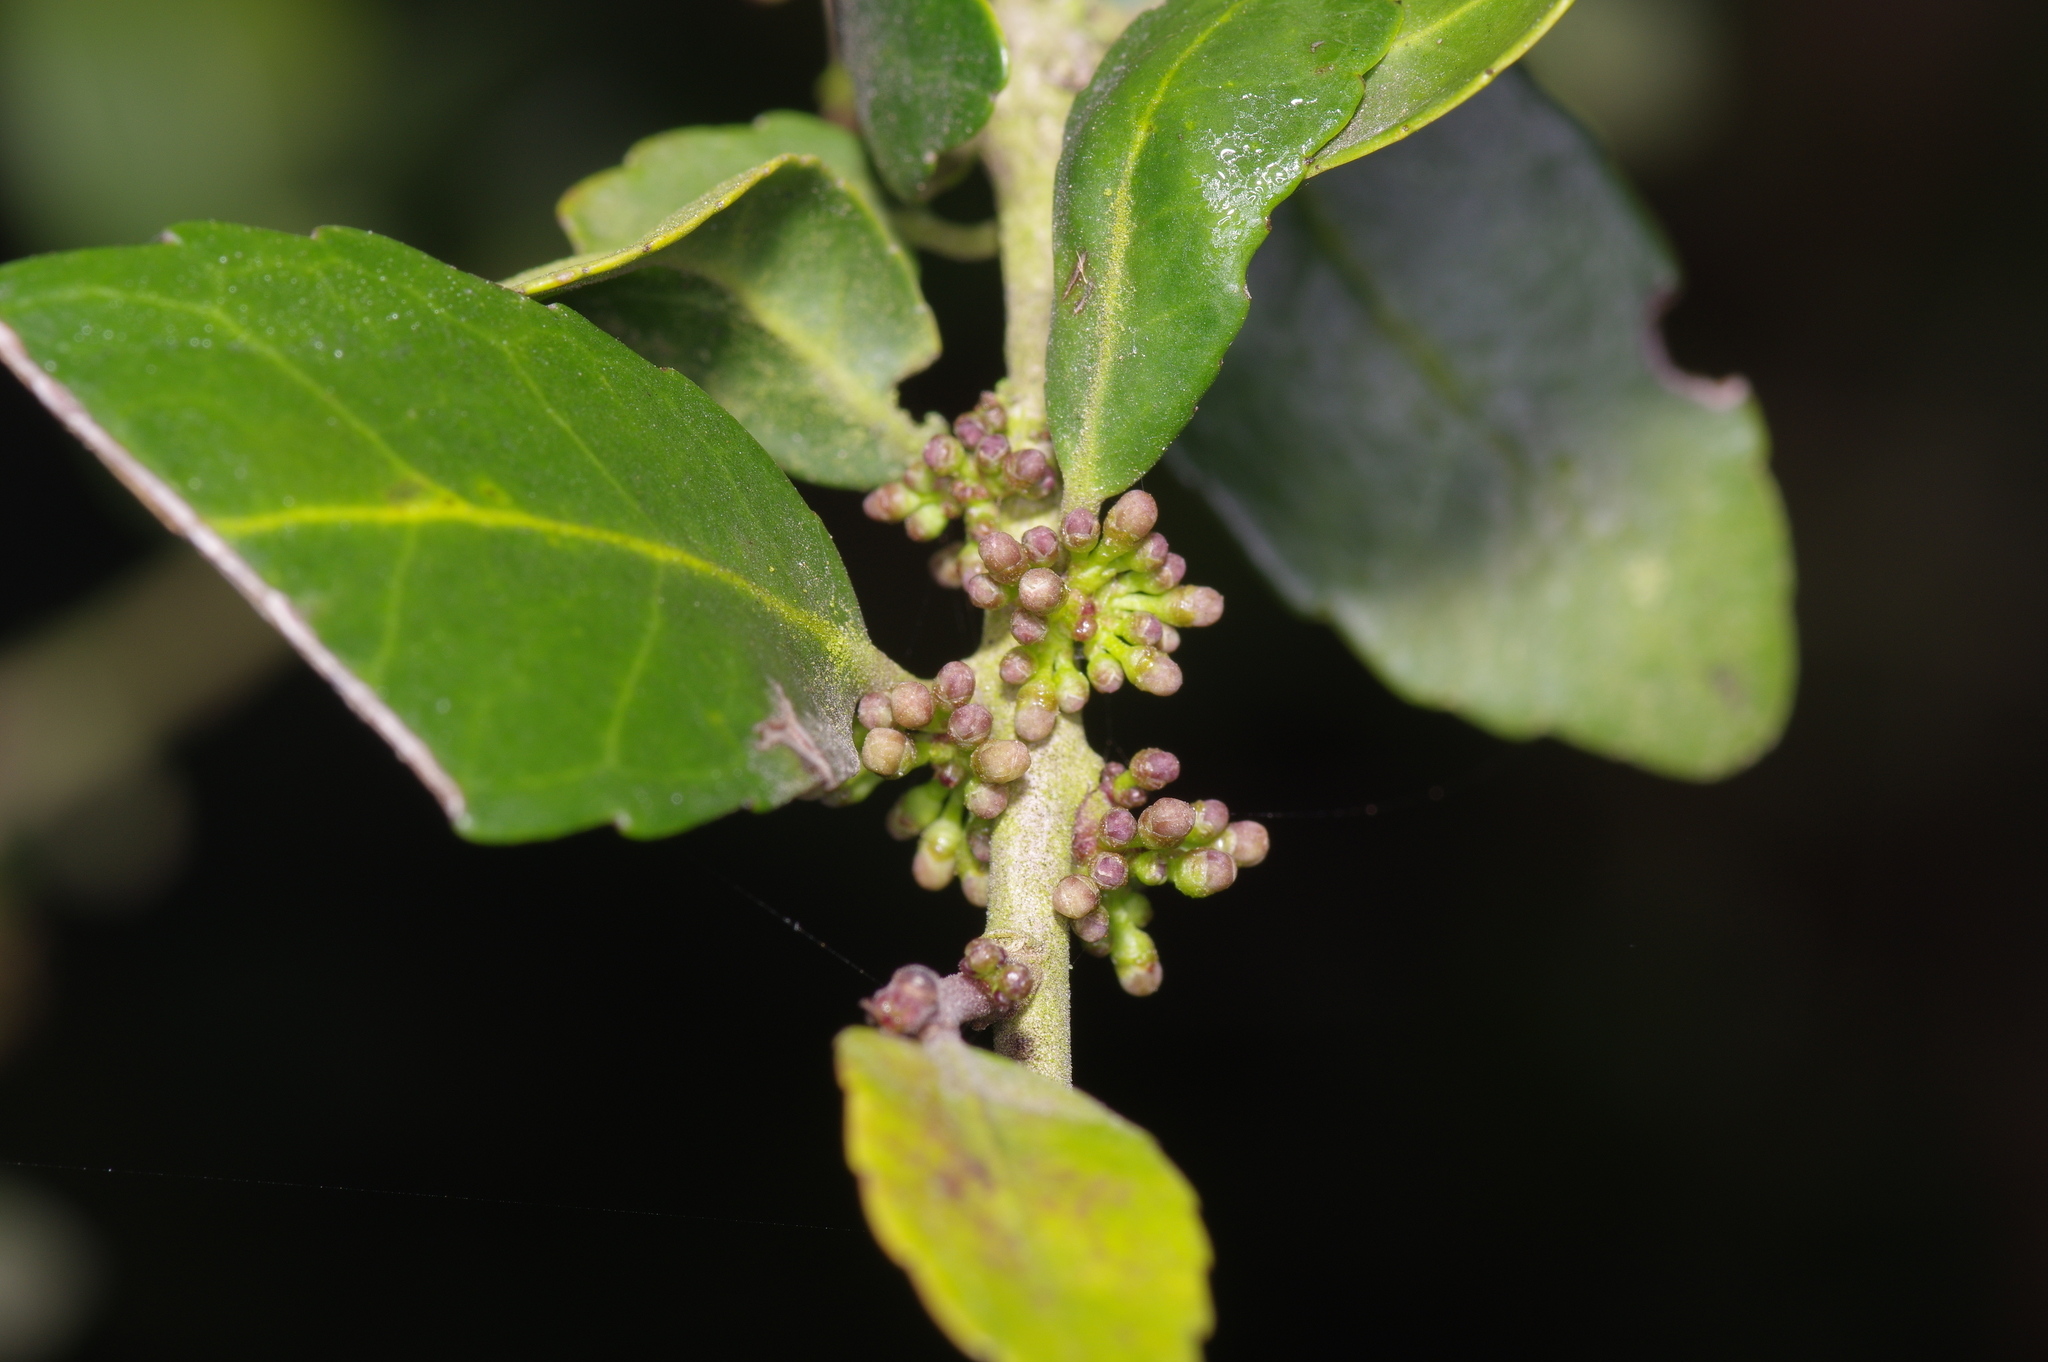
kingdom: Plantae
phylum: Tracheophyta
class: Magnoliopsida
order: Aquifoliales
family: Aquifoliaceae
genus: Ilex
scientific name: Ilex vomitoria
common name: Yaupon holly
